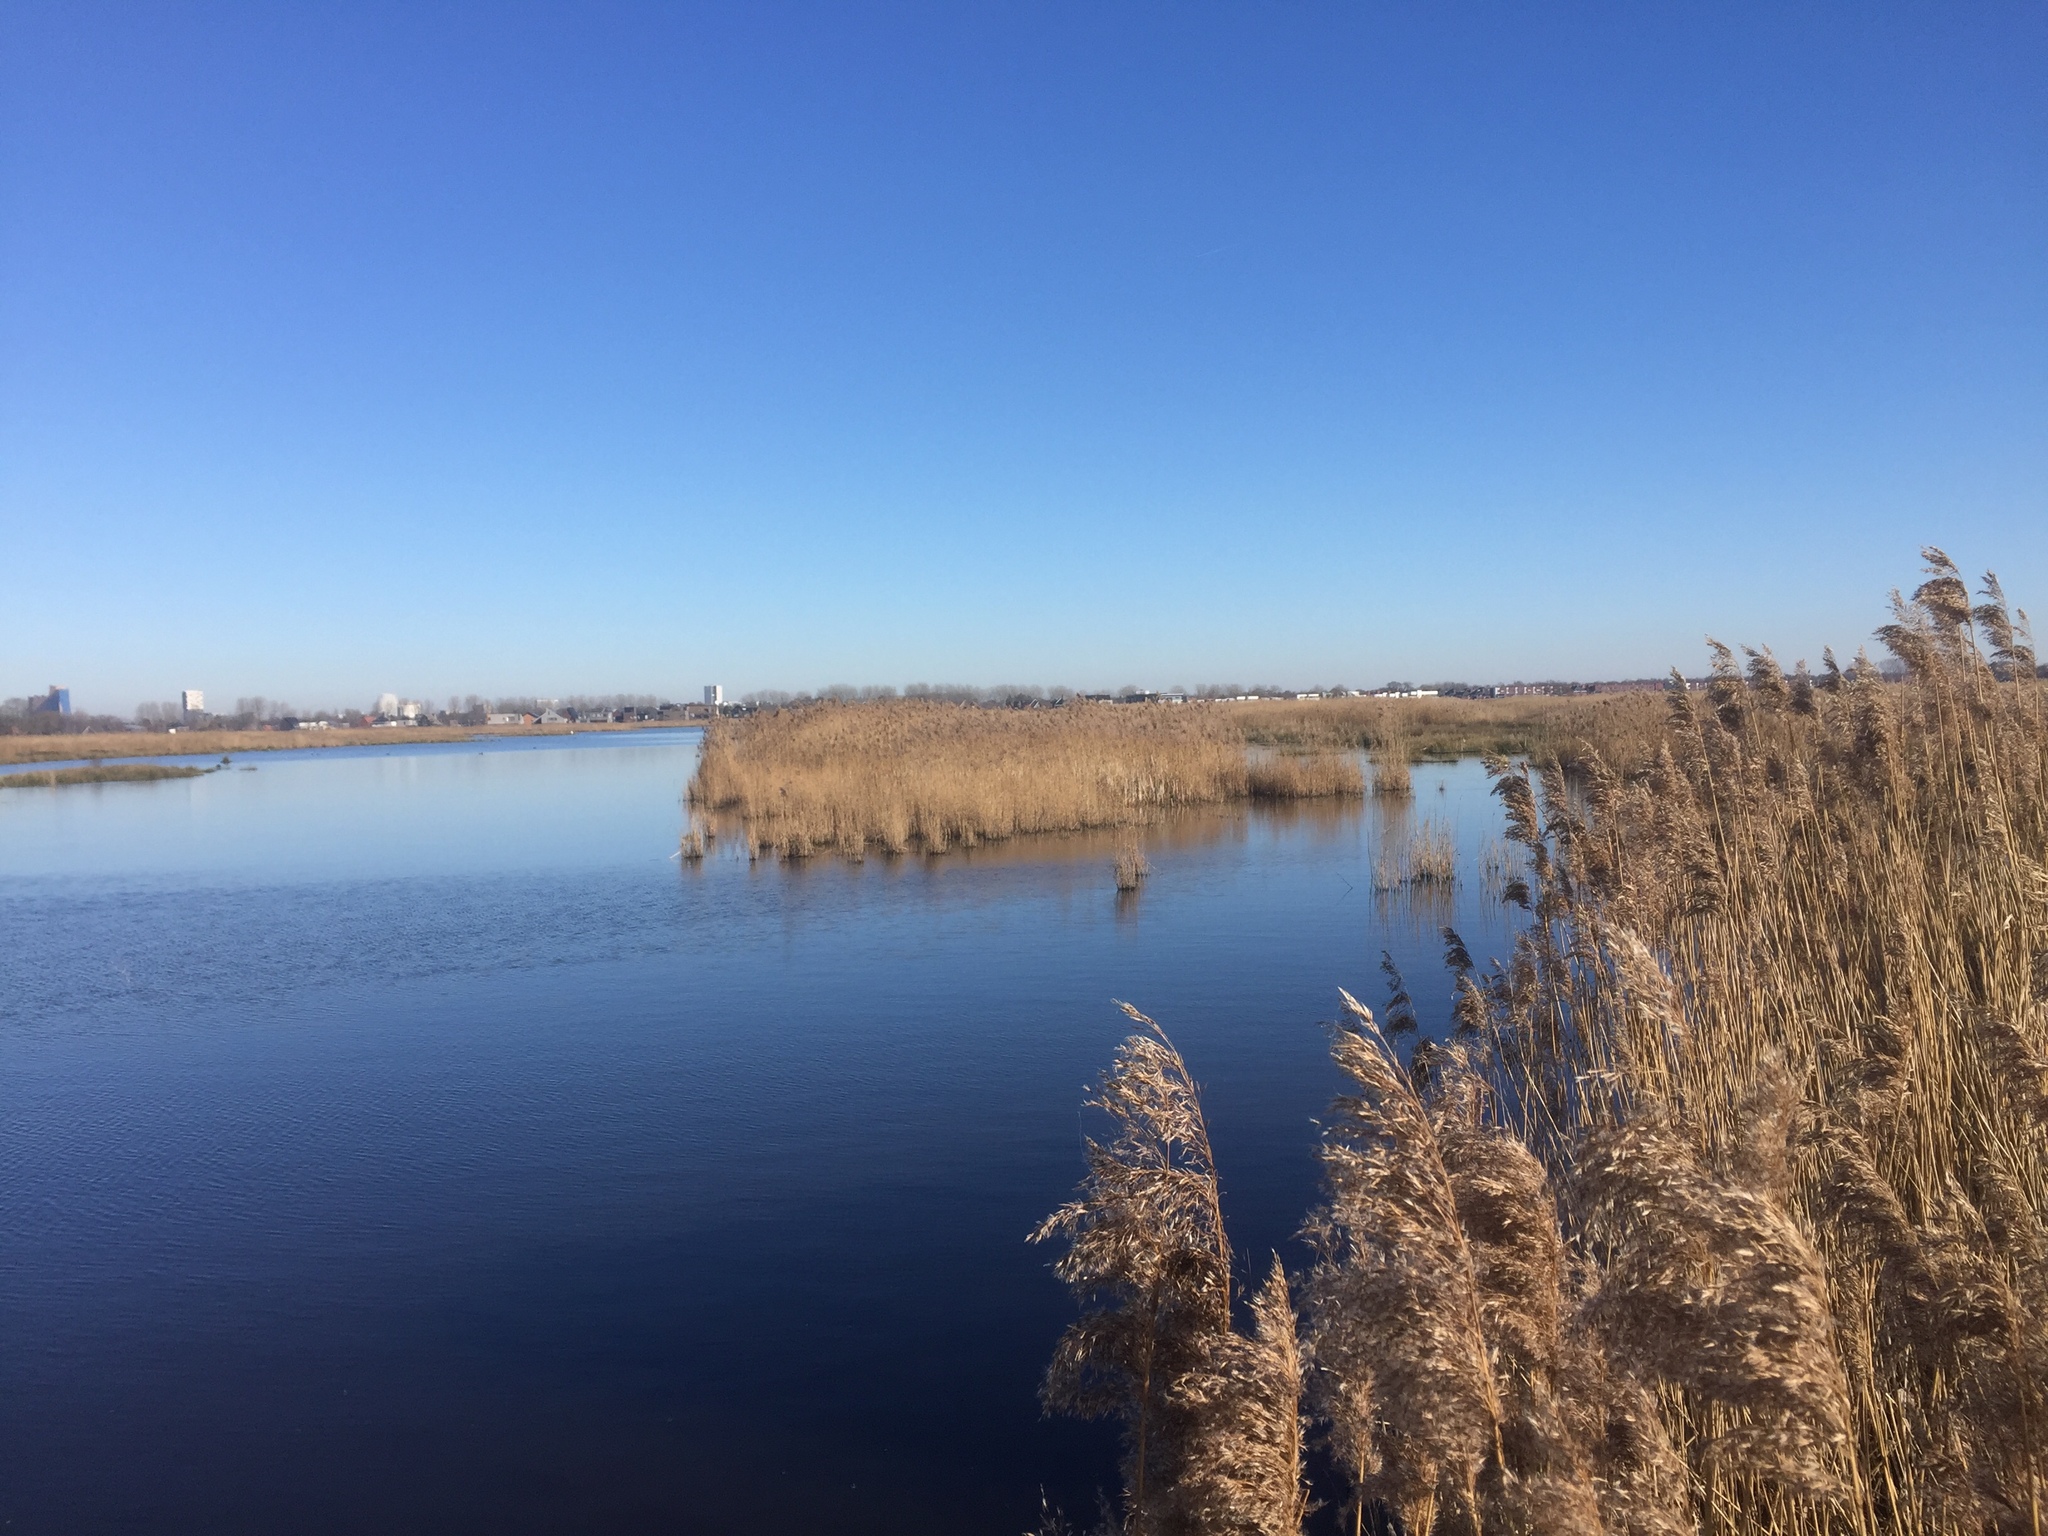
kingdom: Plantae
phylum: Tracheophyta
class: Liliopsida
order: Poales
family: Poaceae
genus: Phragmites
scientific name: Phragmites australis
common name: Common reed
